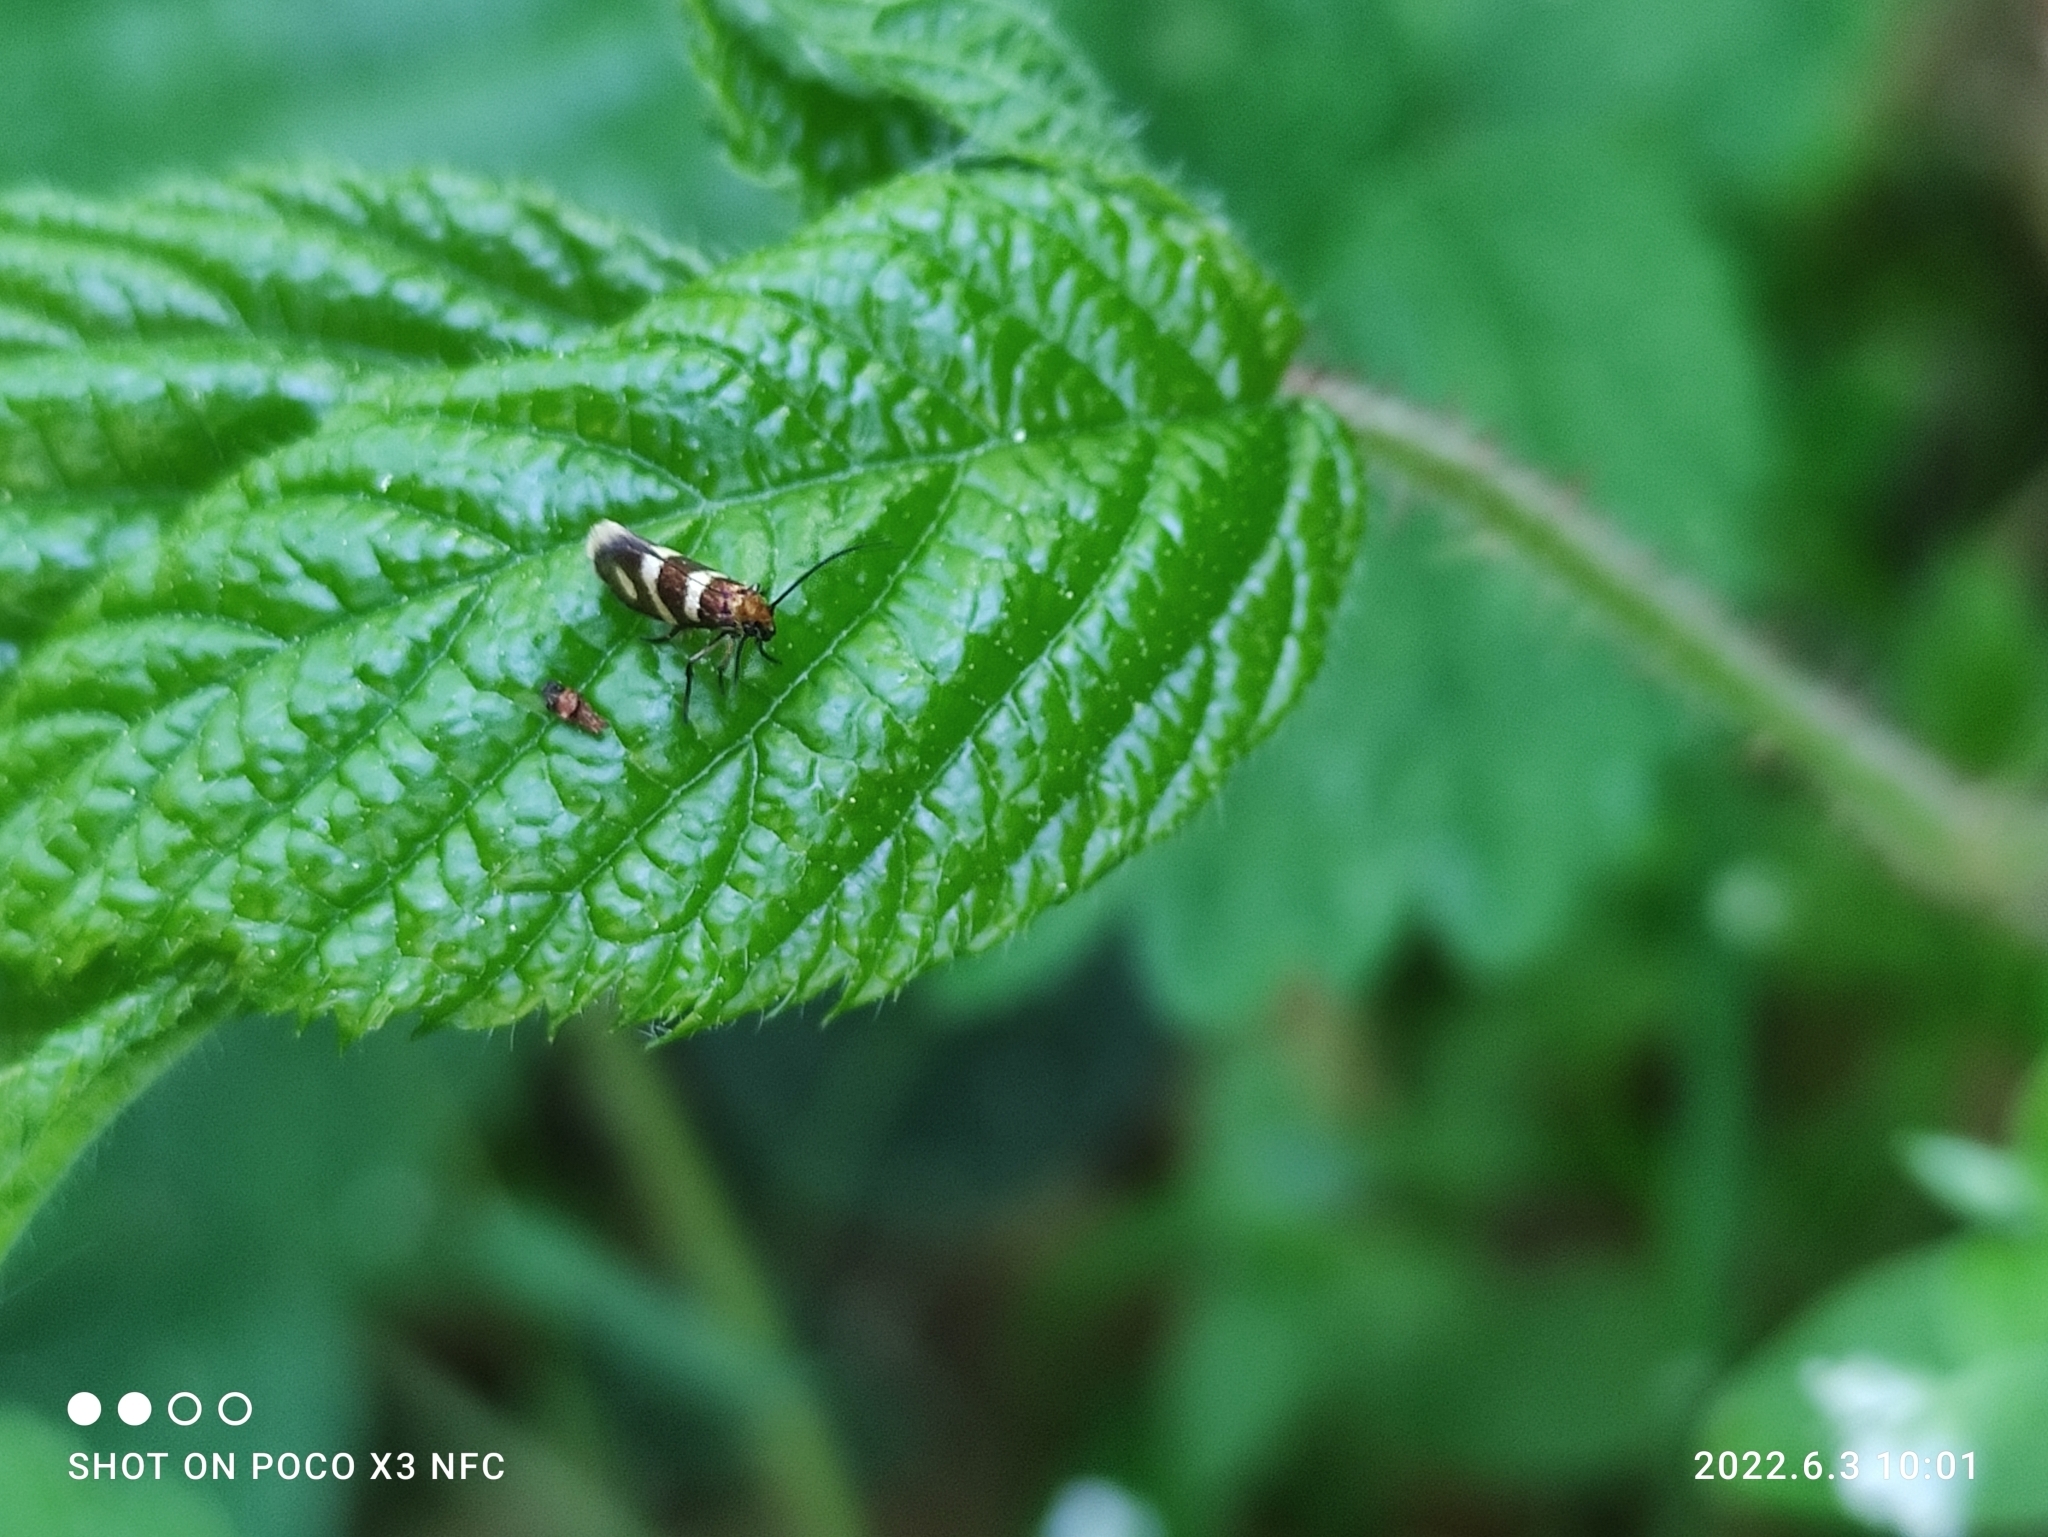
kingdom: Animalia
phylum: Arthropoda
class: Insecta
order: Lepidoptera
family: Micropterigidae
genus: Micropterix
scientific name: Micropterix aureatella
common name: Yellow-barred gold
